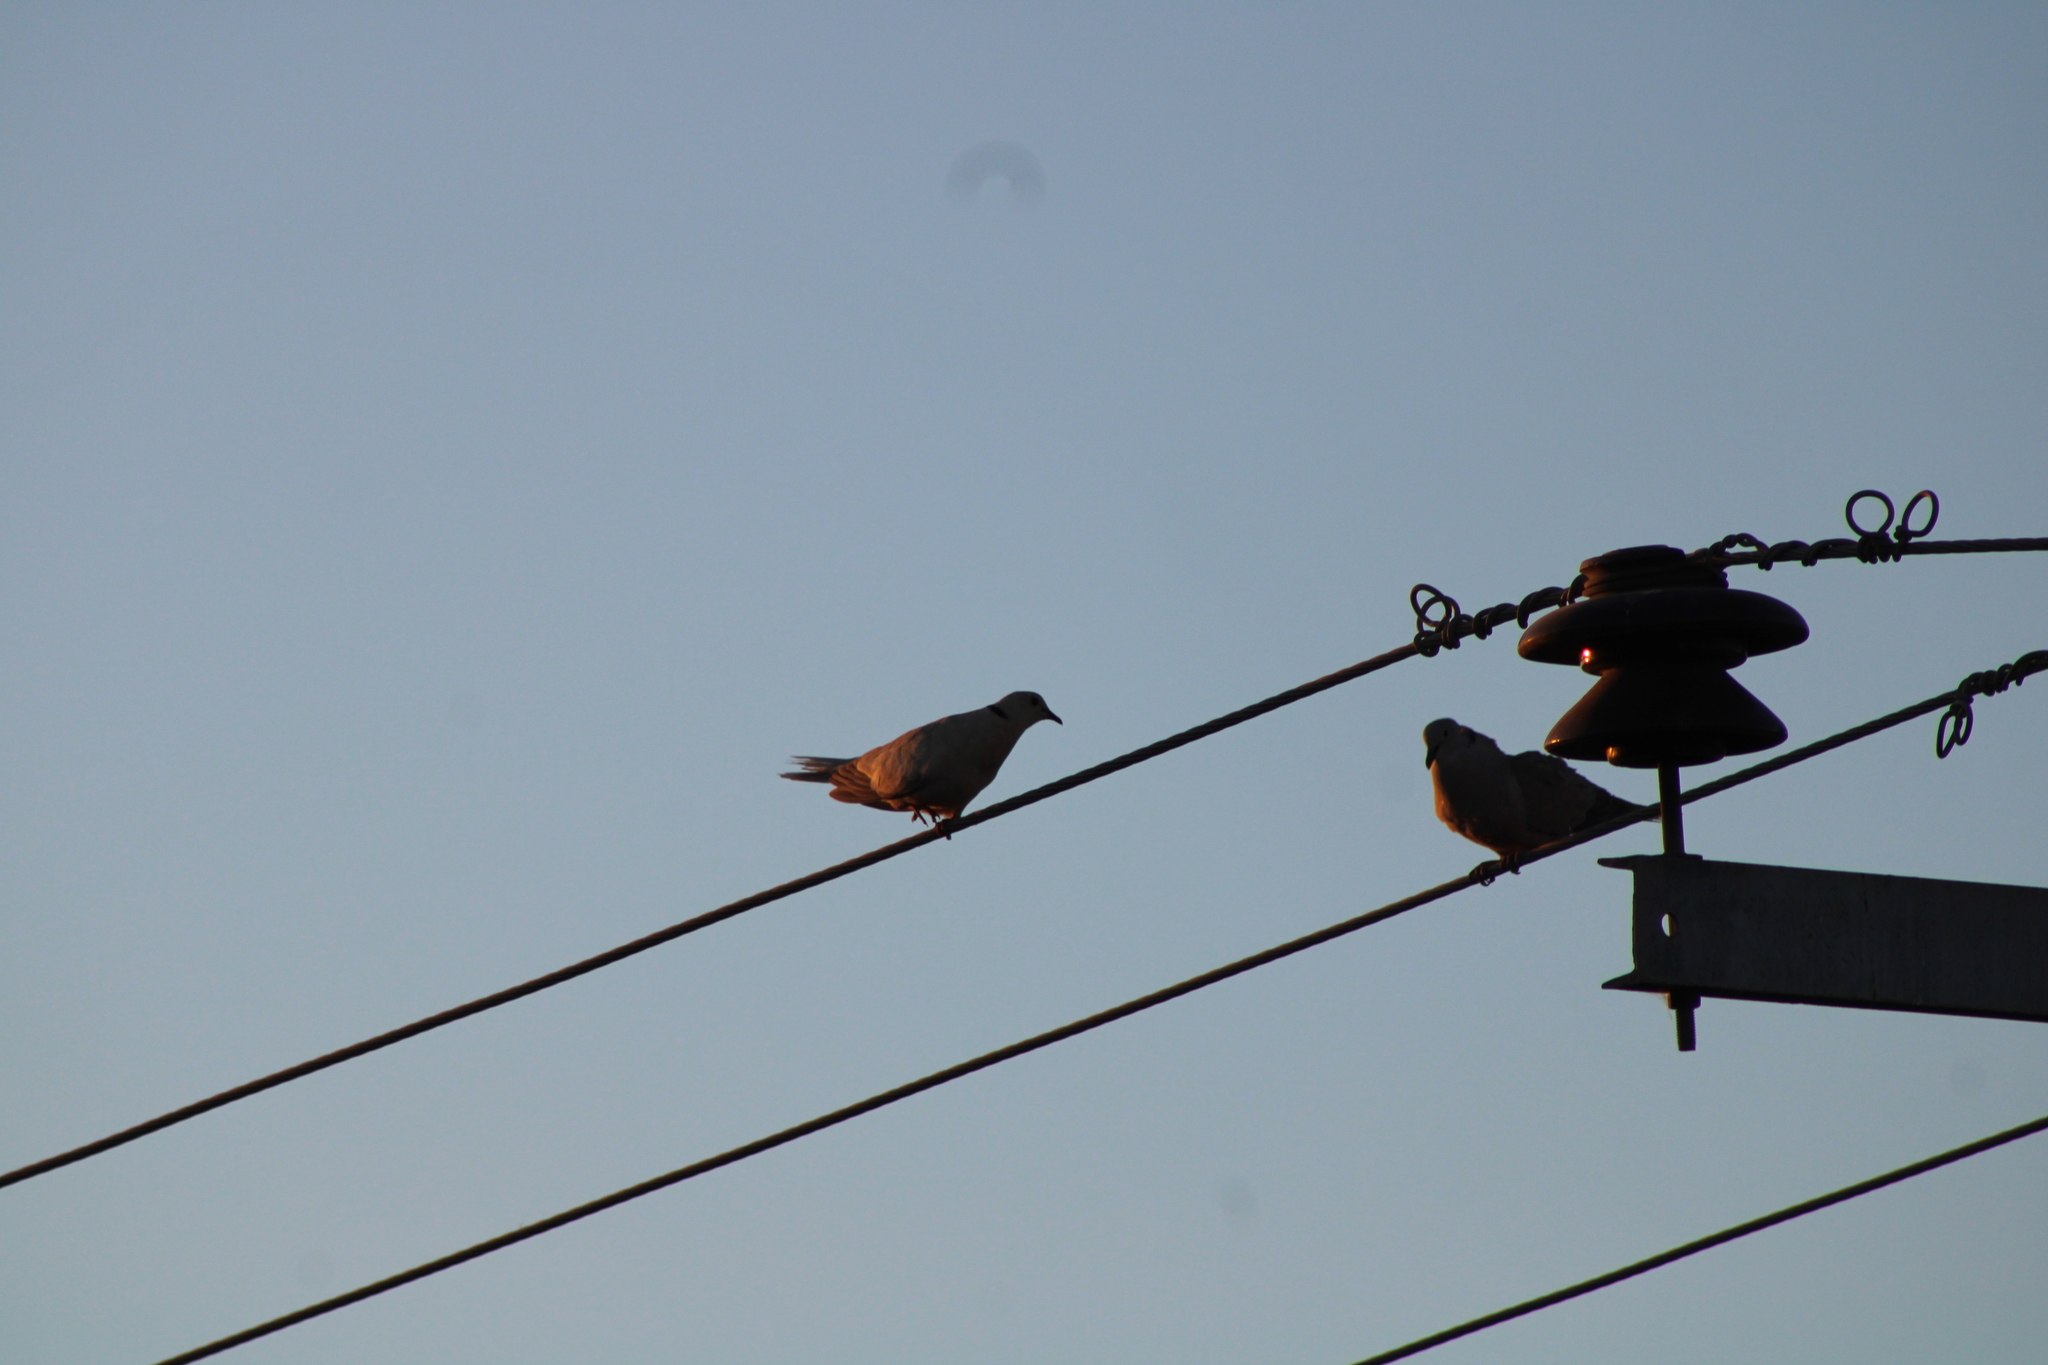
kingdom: Animalia
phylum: Chordata
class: Aves
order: Columbiformes
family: Columbidae
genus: Streptopelia
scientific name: Streptopelia decaocto
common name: Eurasian collared dove
